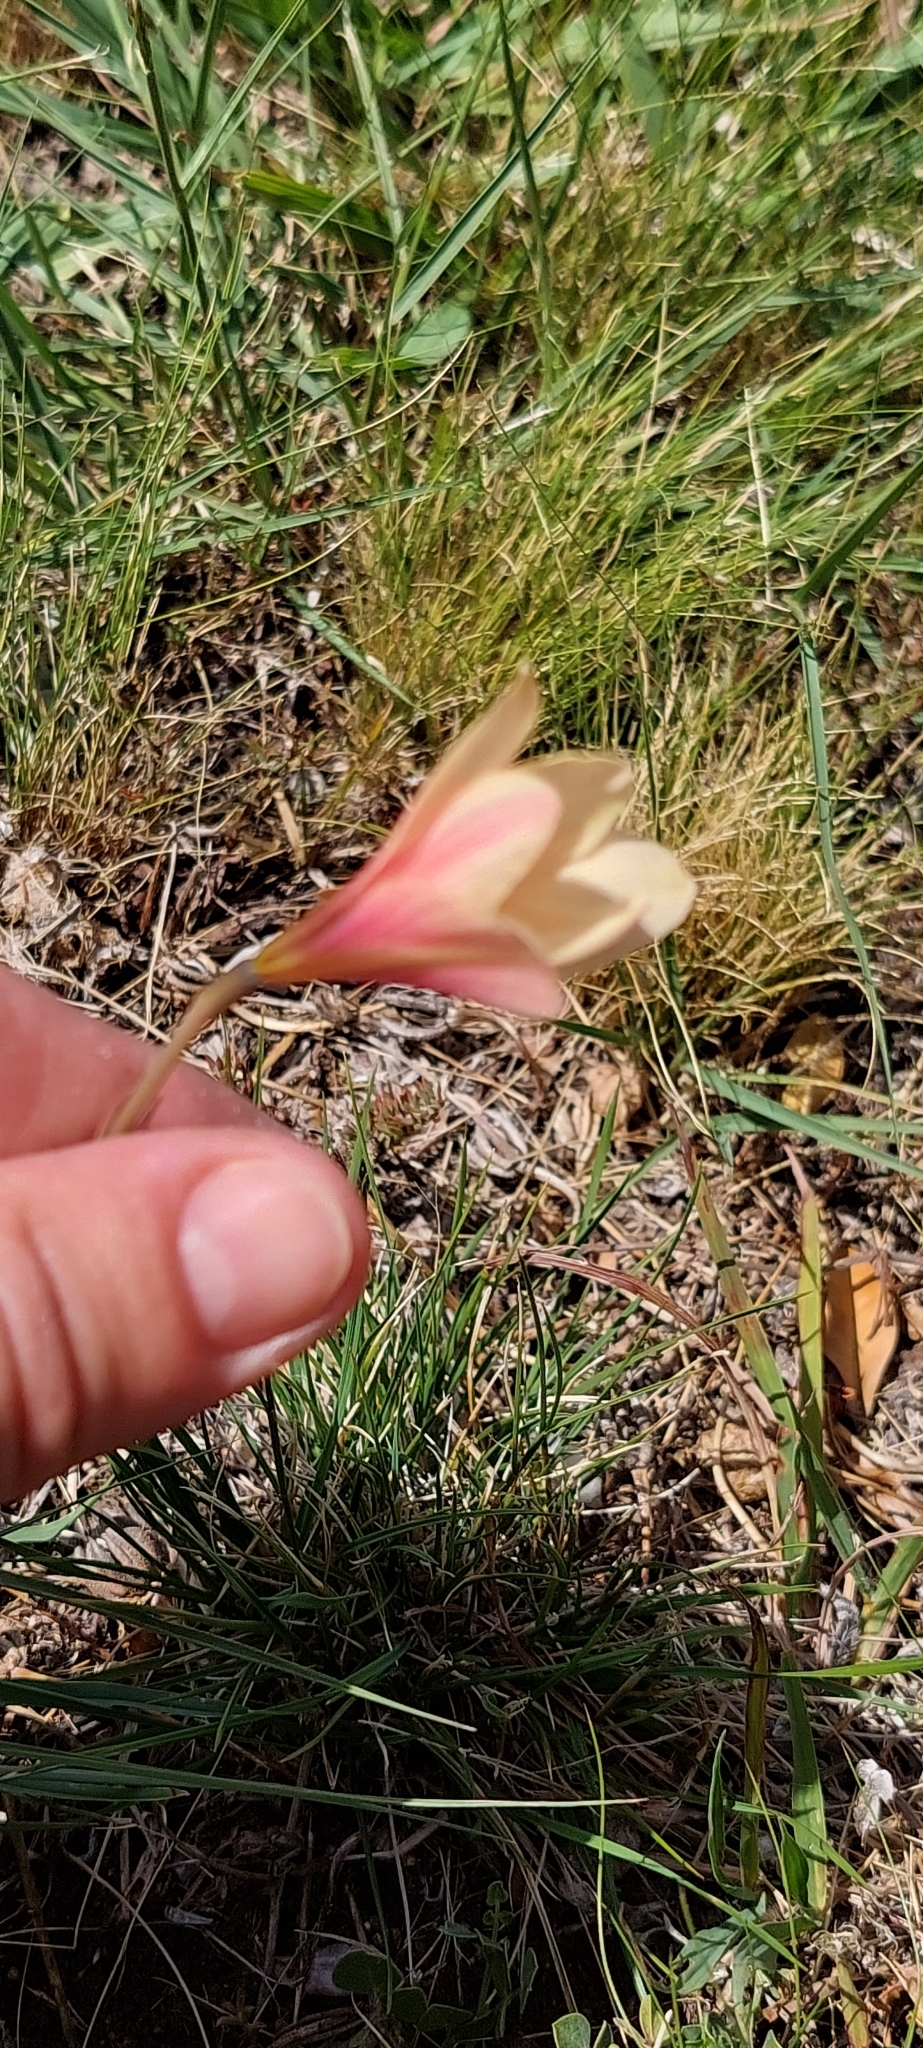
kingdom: Plantae
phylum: Tracheophyta
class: Liliopsida
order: Asparagales
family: Amaryllidaceae
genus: Zephyranthes
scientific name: Zephyranthes tubispatha
